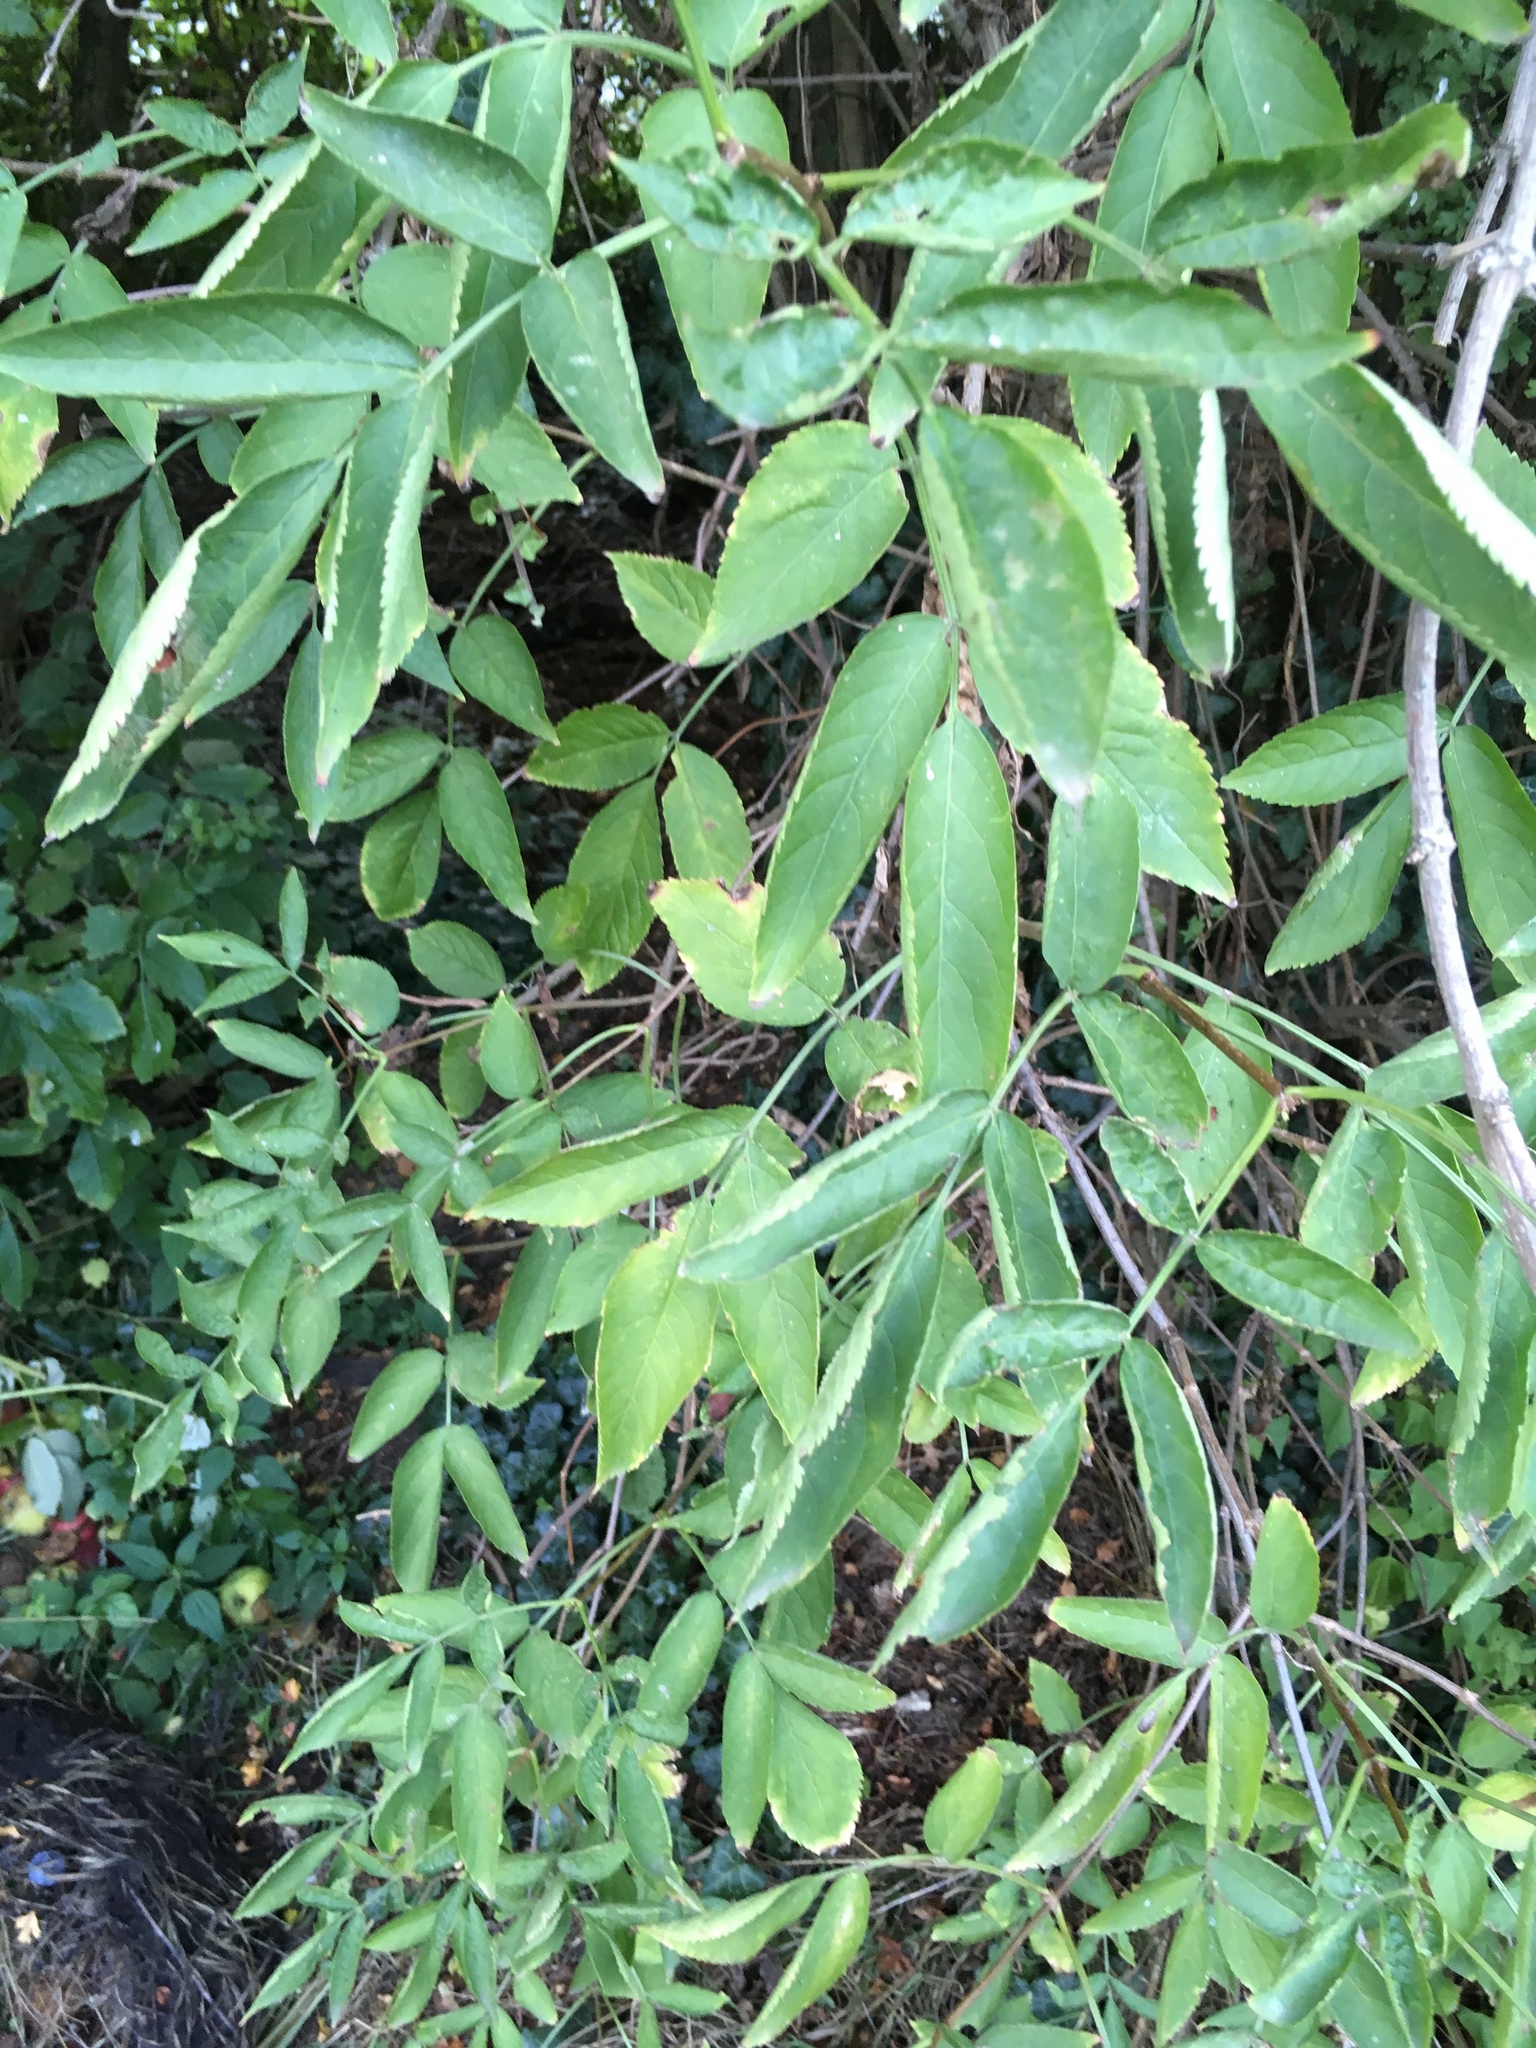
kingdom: Plantae
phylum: Tracheophyta
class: Magnoliopsida
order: Dipsacales
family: Viburnaceae
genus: Sambucus
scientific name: Sambucus nigra
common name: Elder
